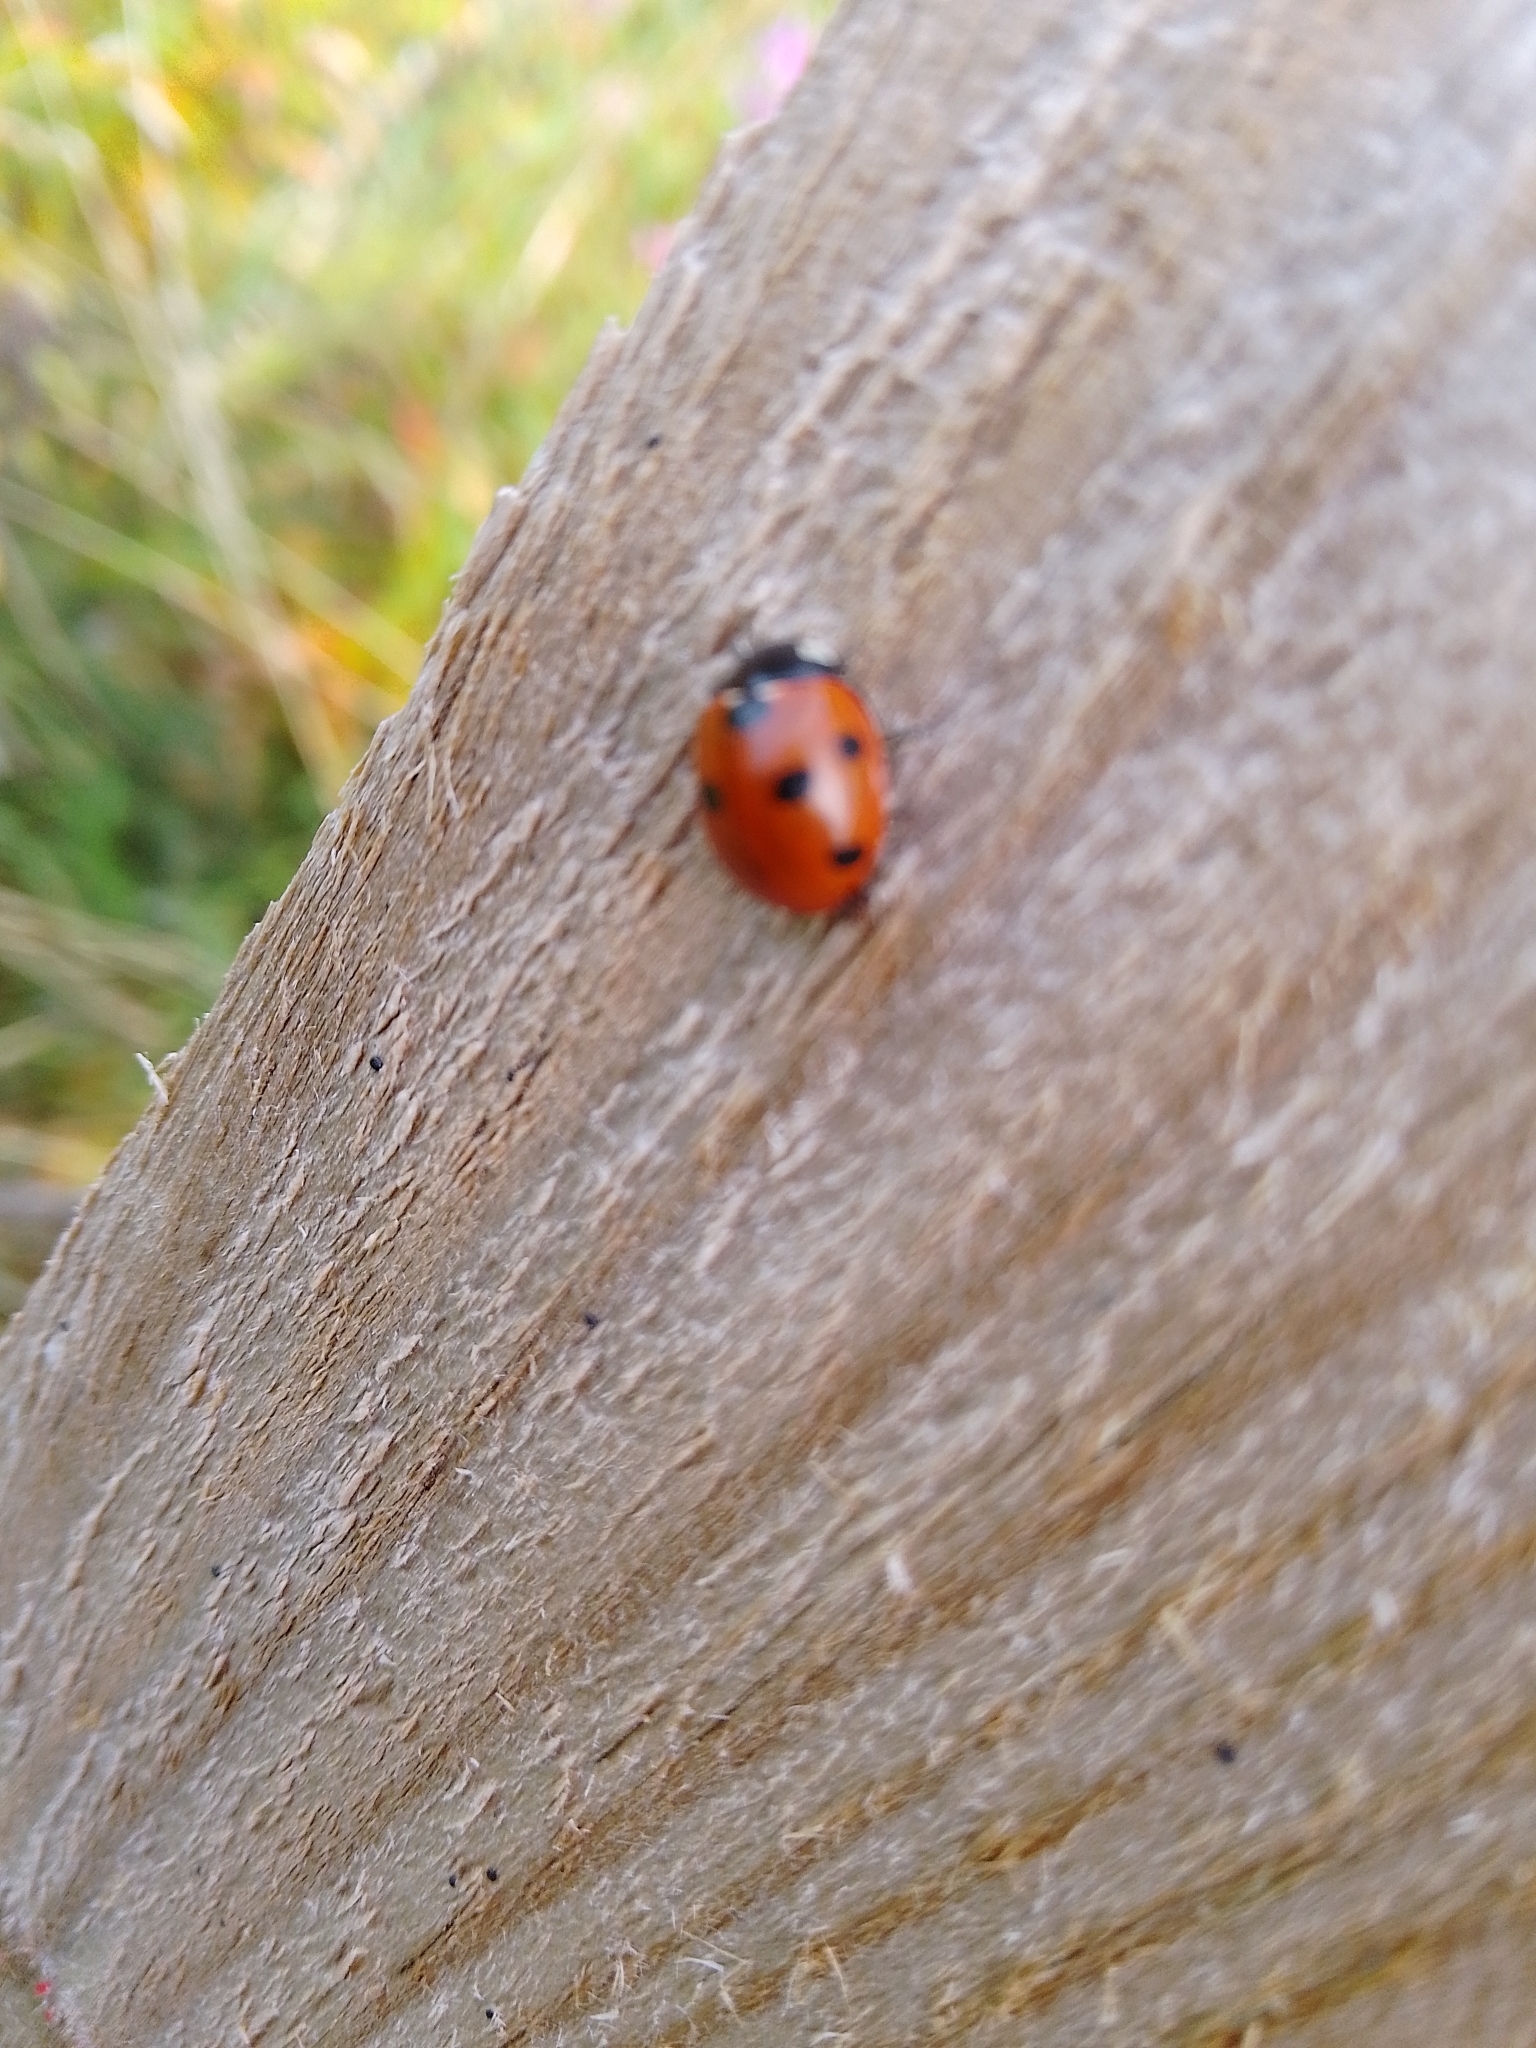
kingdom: Animalia
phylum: Arthropoda
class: Insecta
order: Coleoptera
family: Coccinellidae
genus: Coccinella
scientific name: Coccinella septempunctata
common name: Sevenspotted lady beetle
